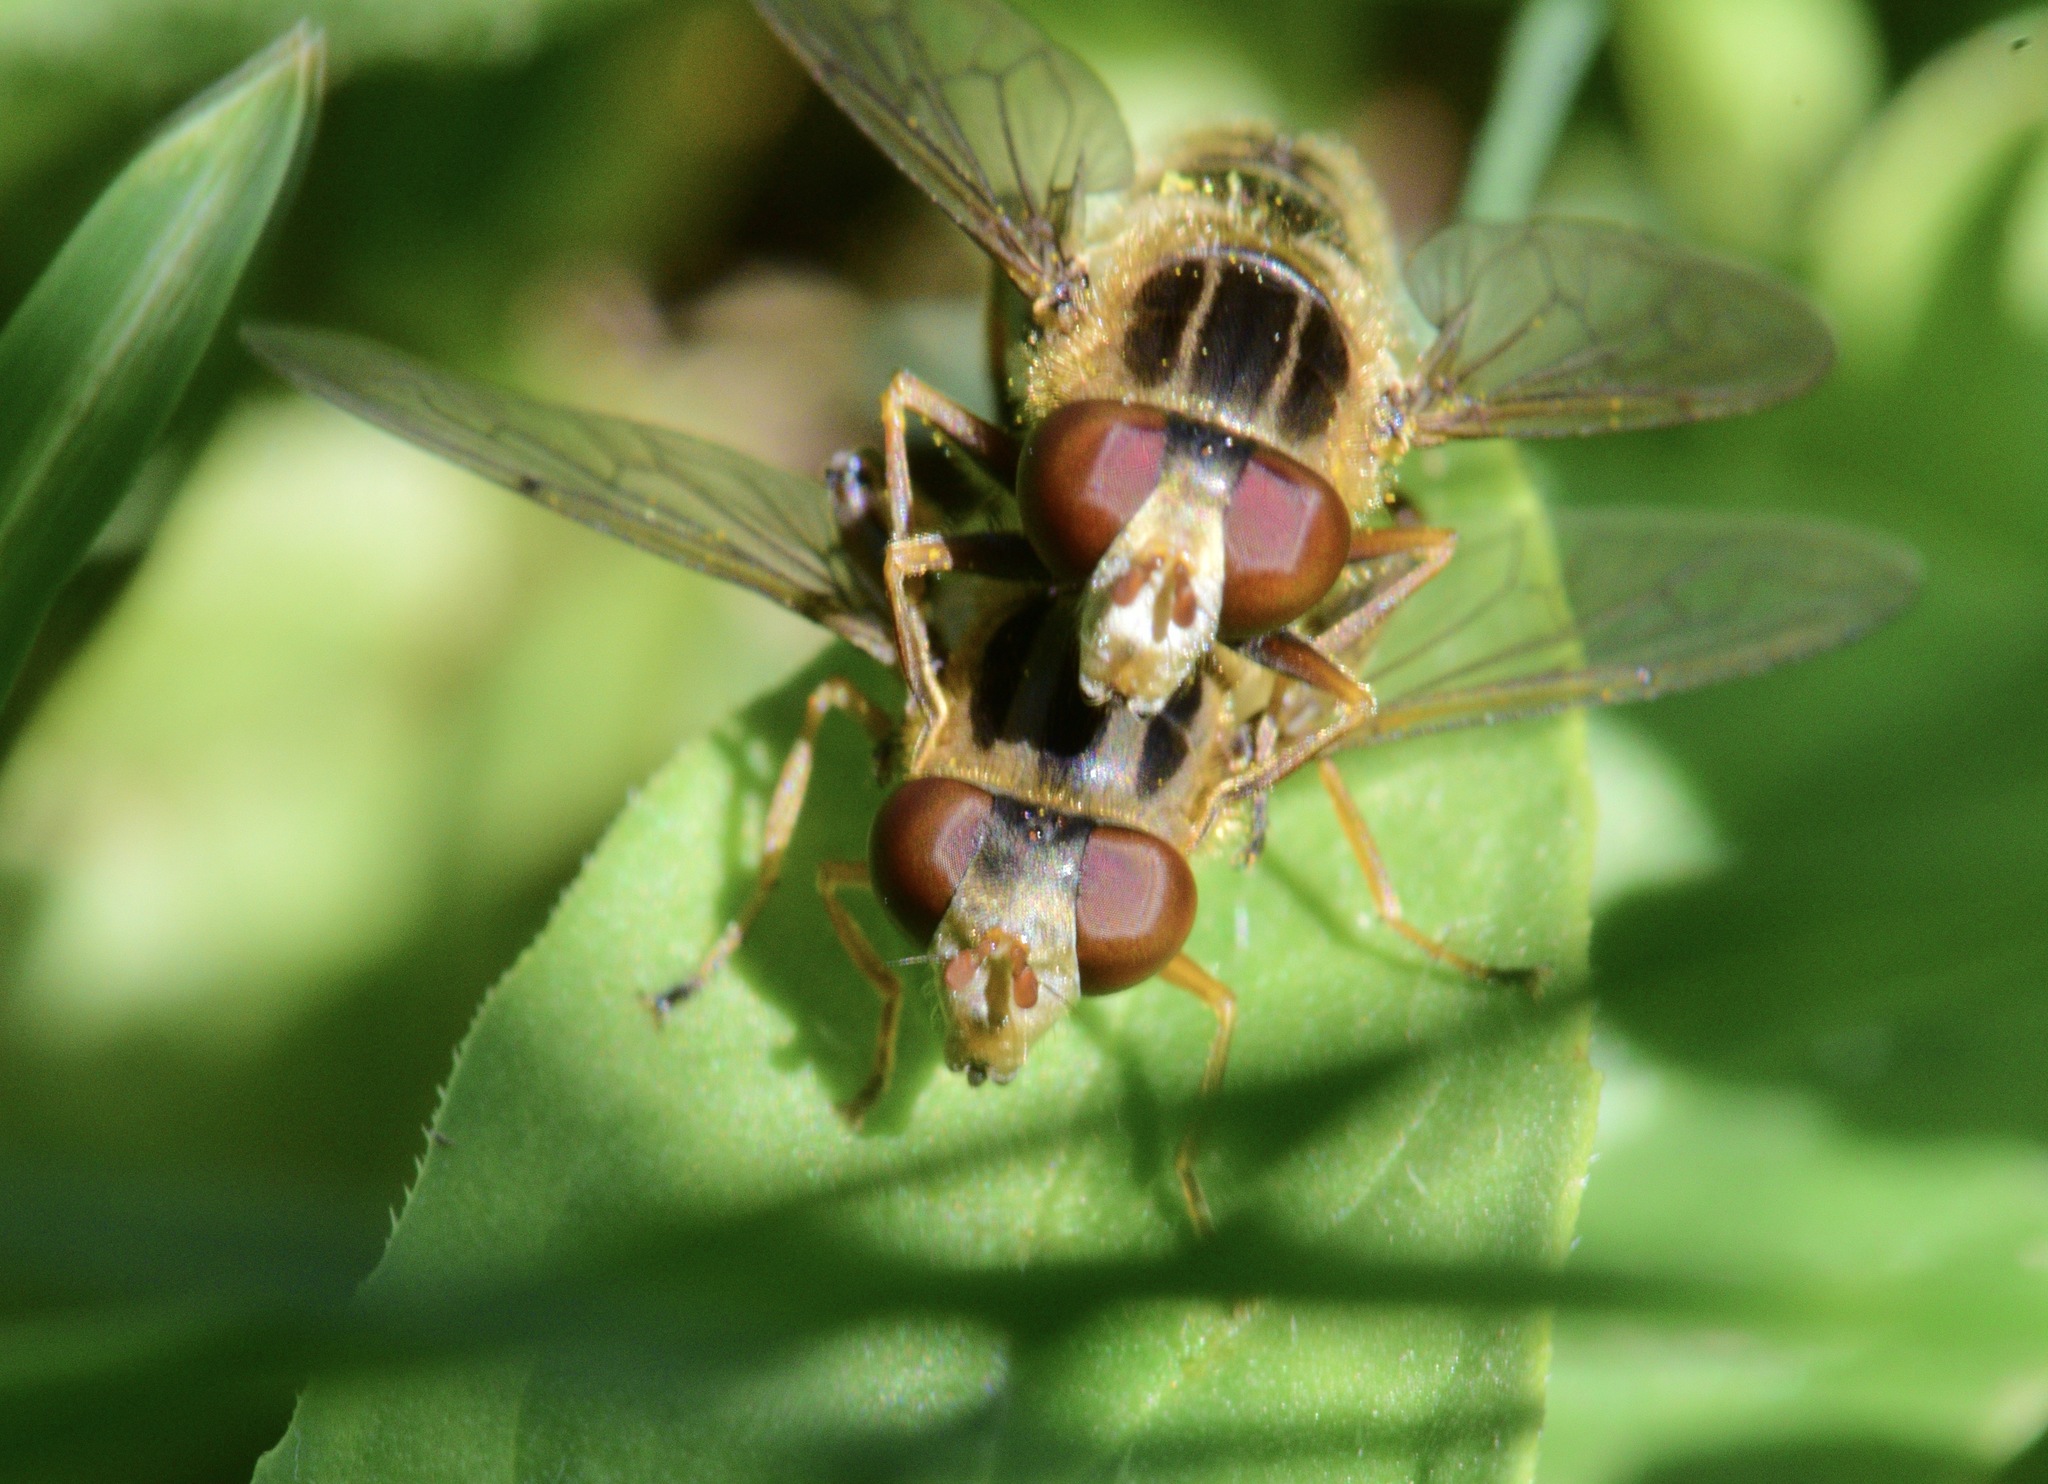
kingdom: Animalia
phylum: Arthropoda
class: Insecta
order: Diptera
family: Syrphidae
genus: Anasimyia
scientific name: Anasimyia
